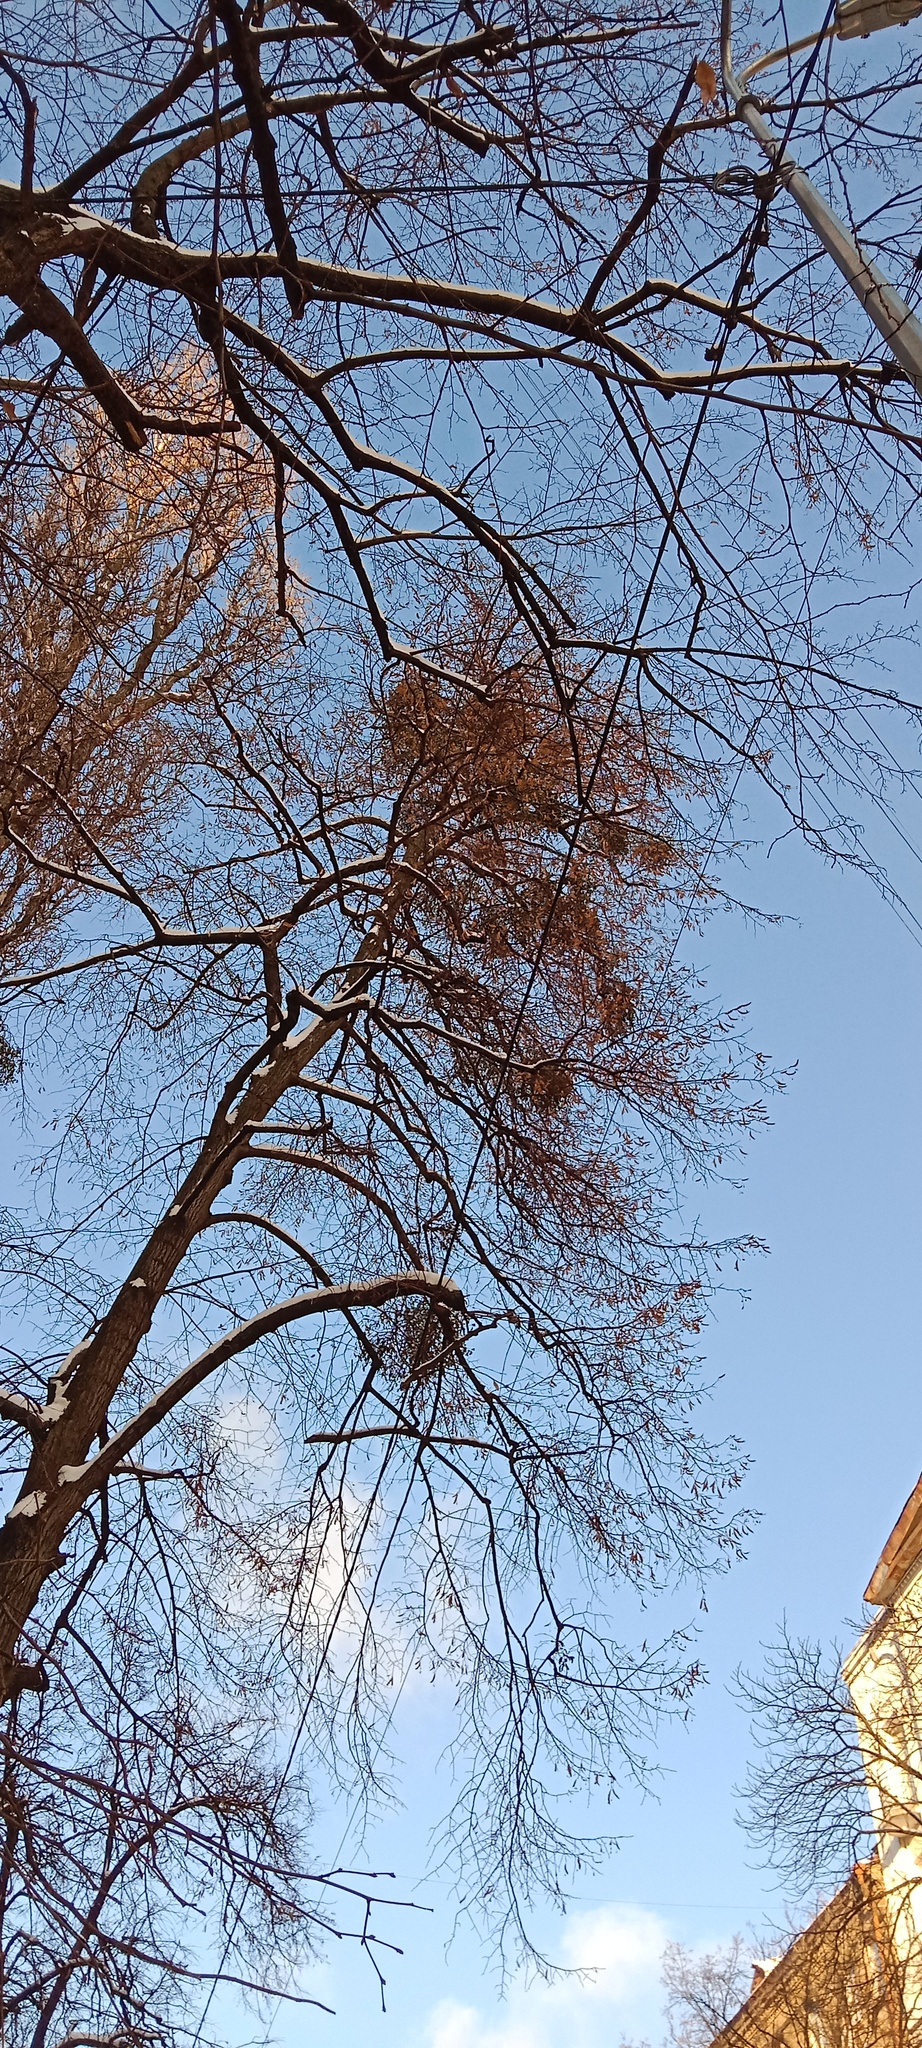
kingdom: Plantae
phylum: Tracheophyta
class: Magnoliopsida
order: Santalales
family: Viscaceae
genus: Viscum
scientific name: Viscum album
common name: Mistletoe
